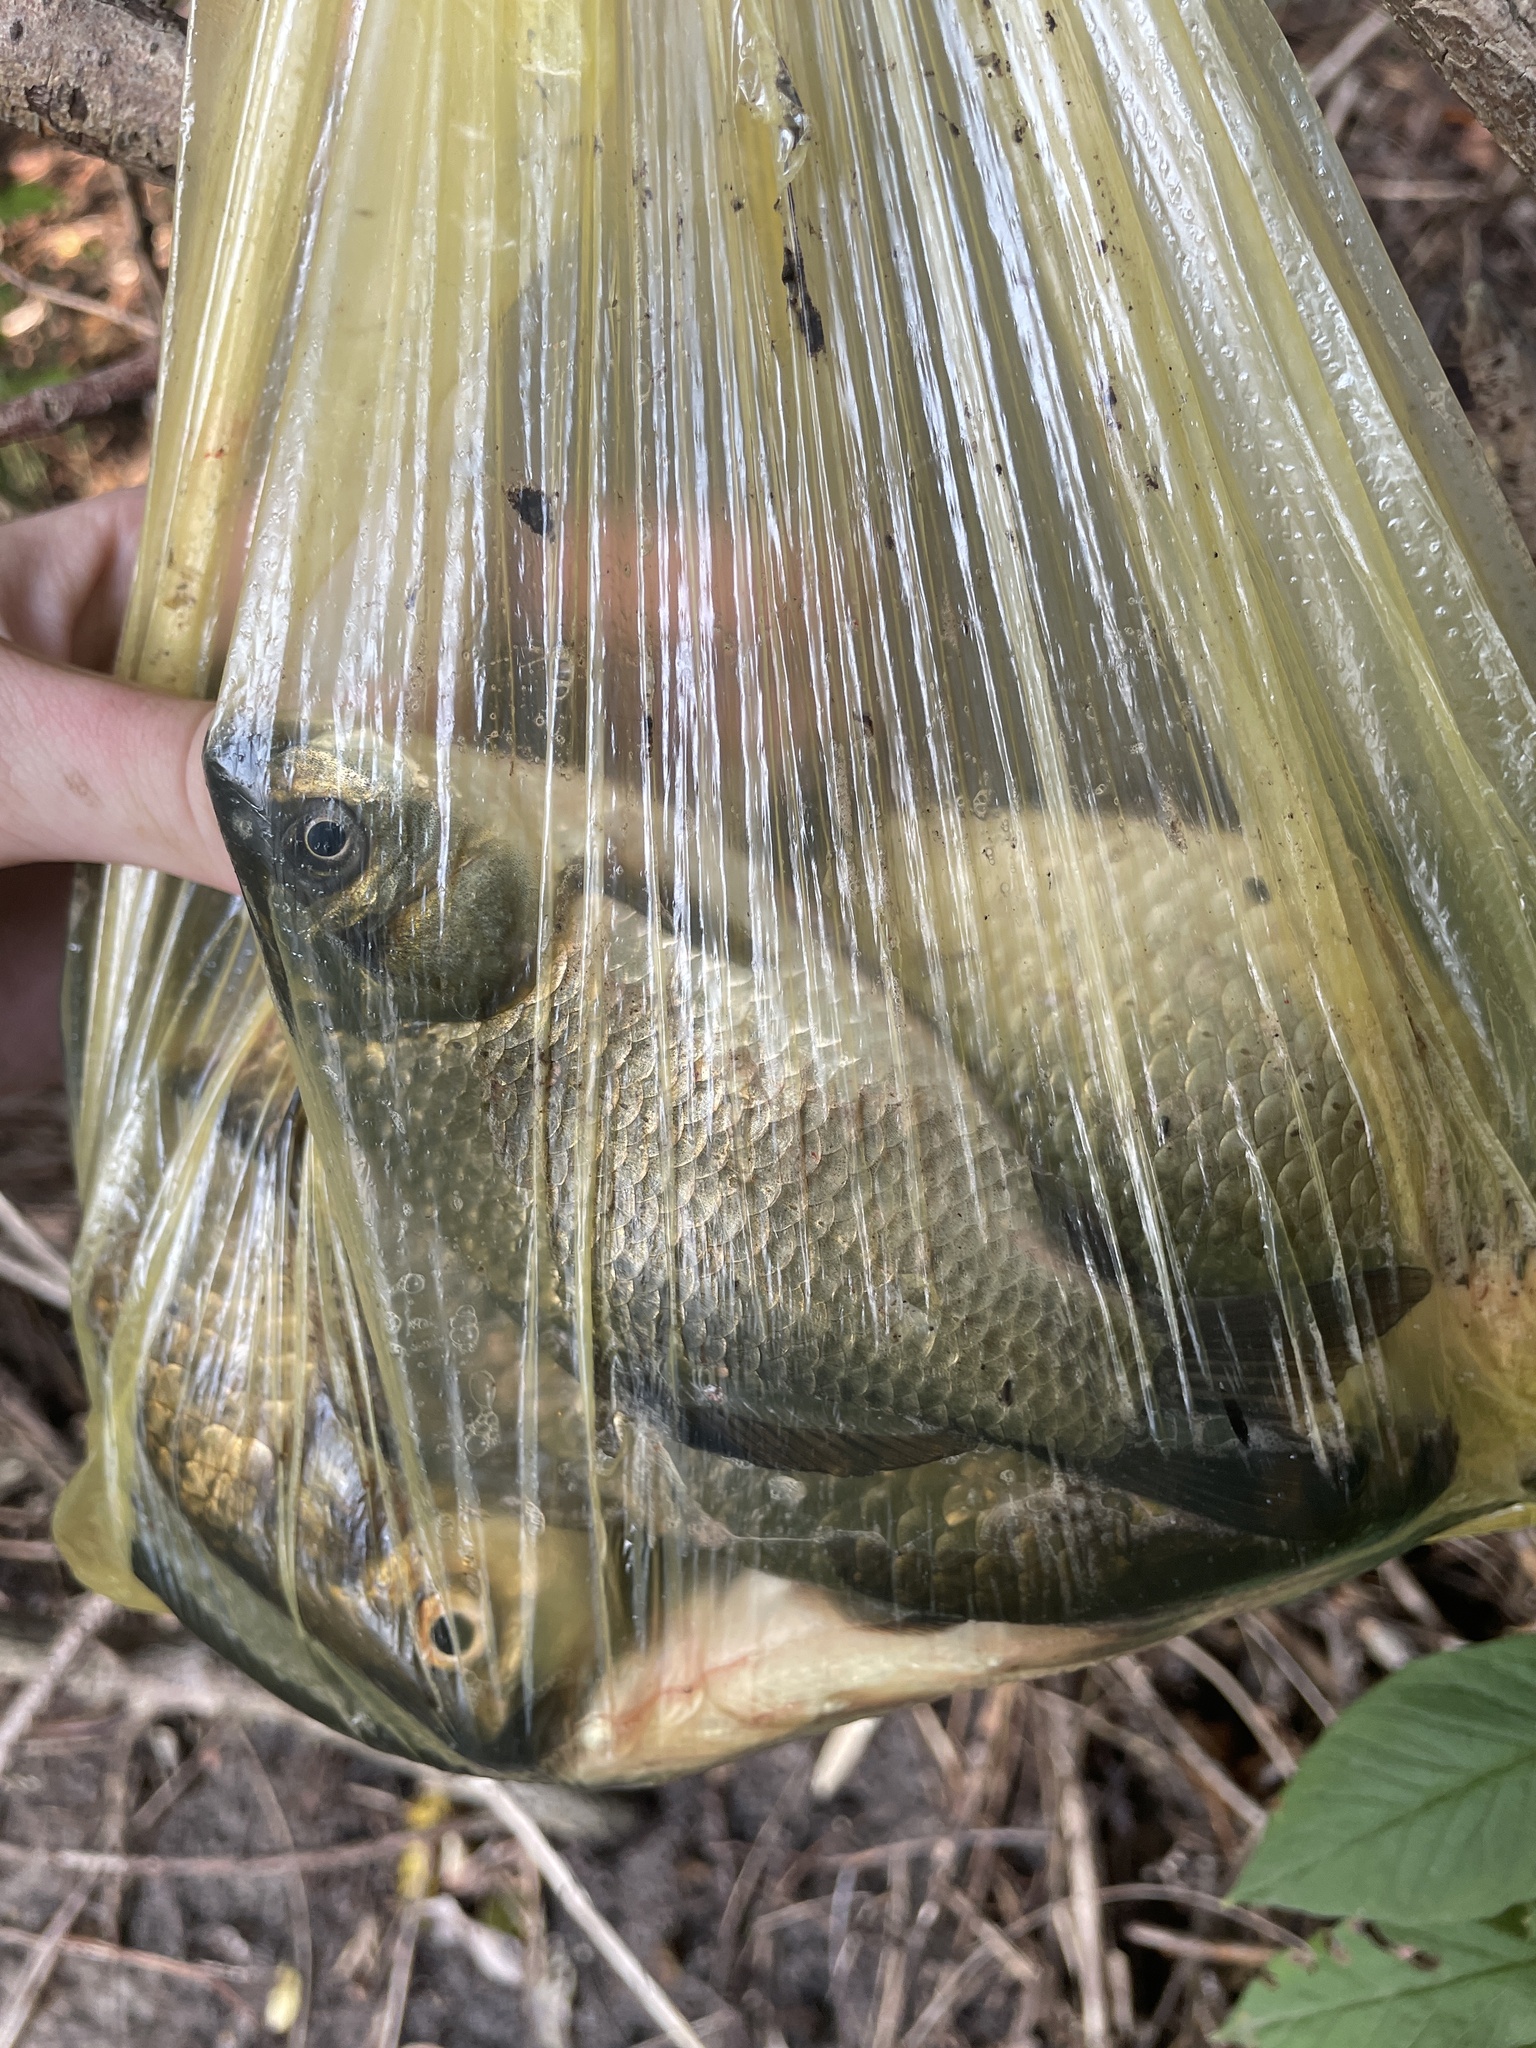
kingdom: Animalia
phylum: Chordata
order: Cypriniformes
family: Cyprinidae
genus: Carassius
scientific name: Carassius gibelio
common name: Prussian carp
